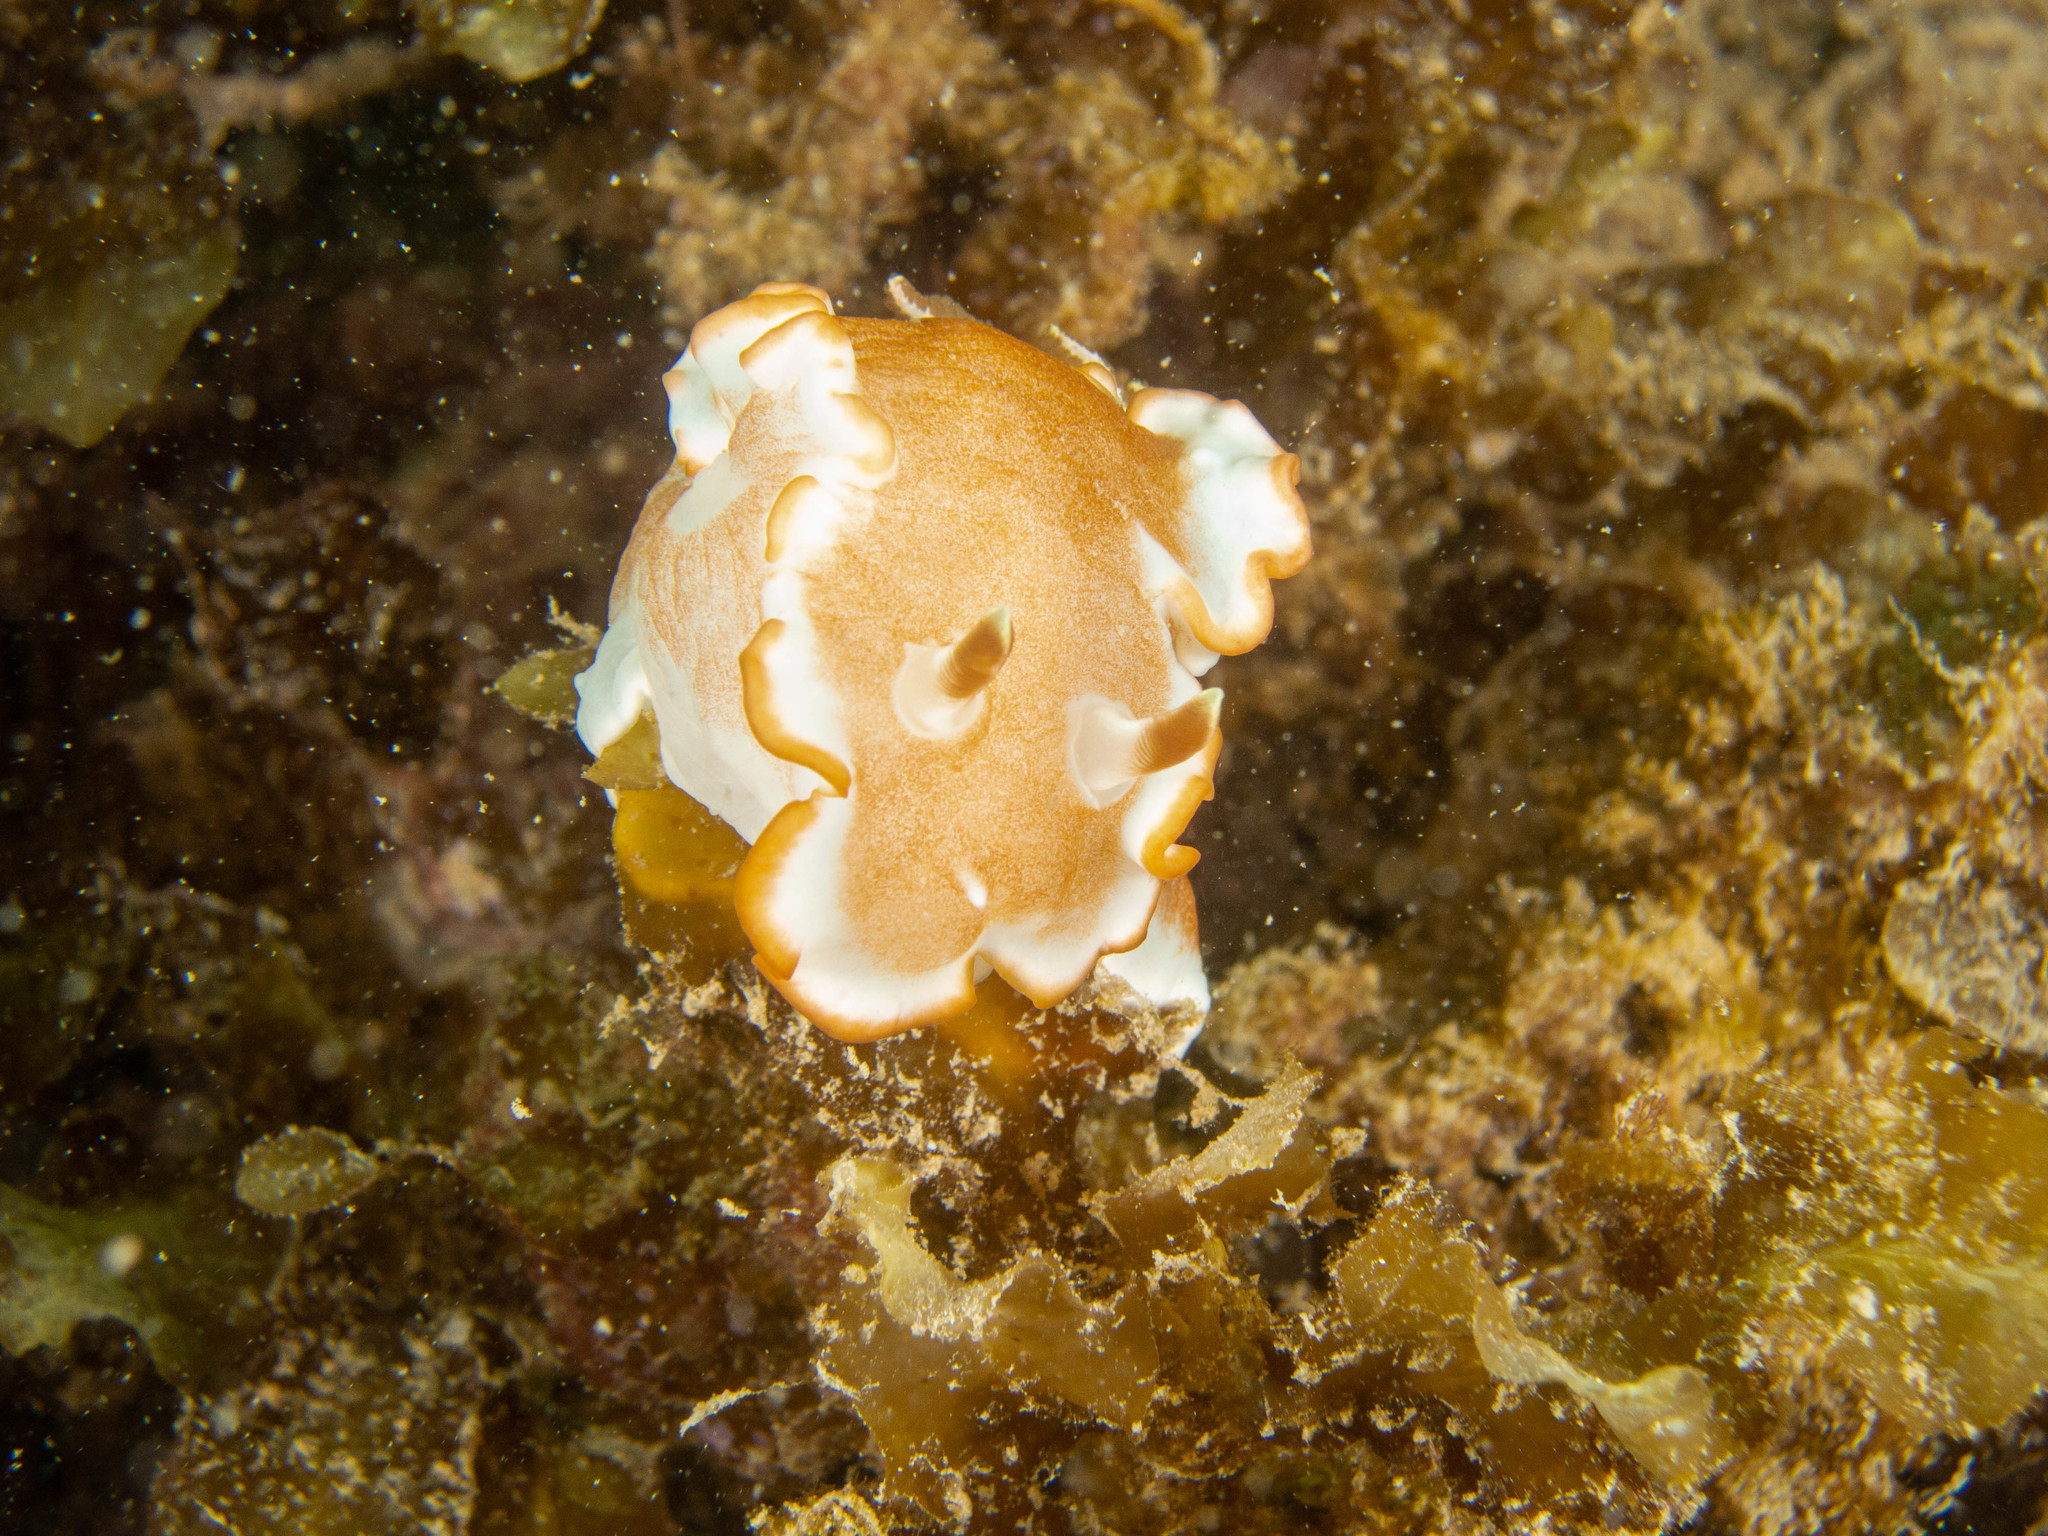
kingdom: Animalia
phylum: Mollusca
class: Gastropoda
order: Nudibranchia
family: Chromodorididae
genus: Glossodoris
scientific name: Glossodoris rufomarginata
